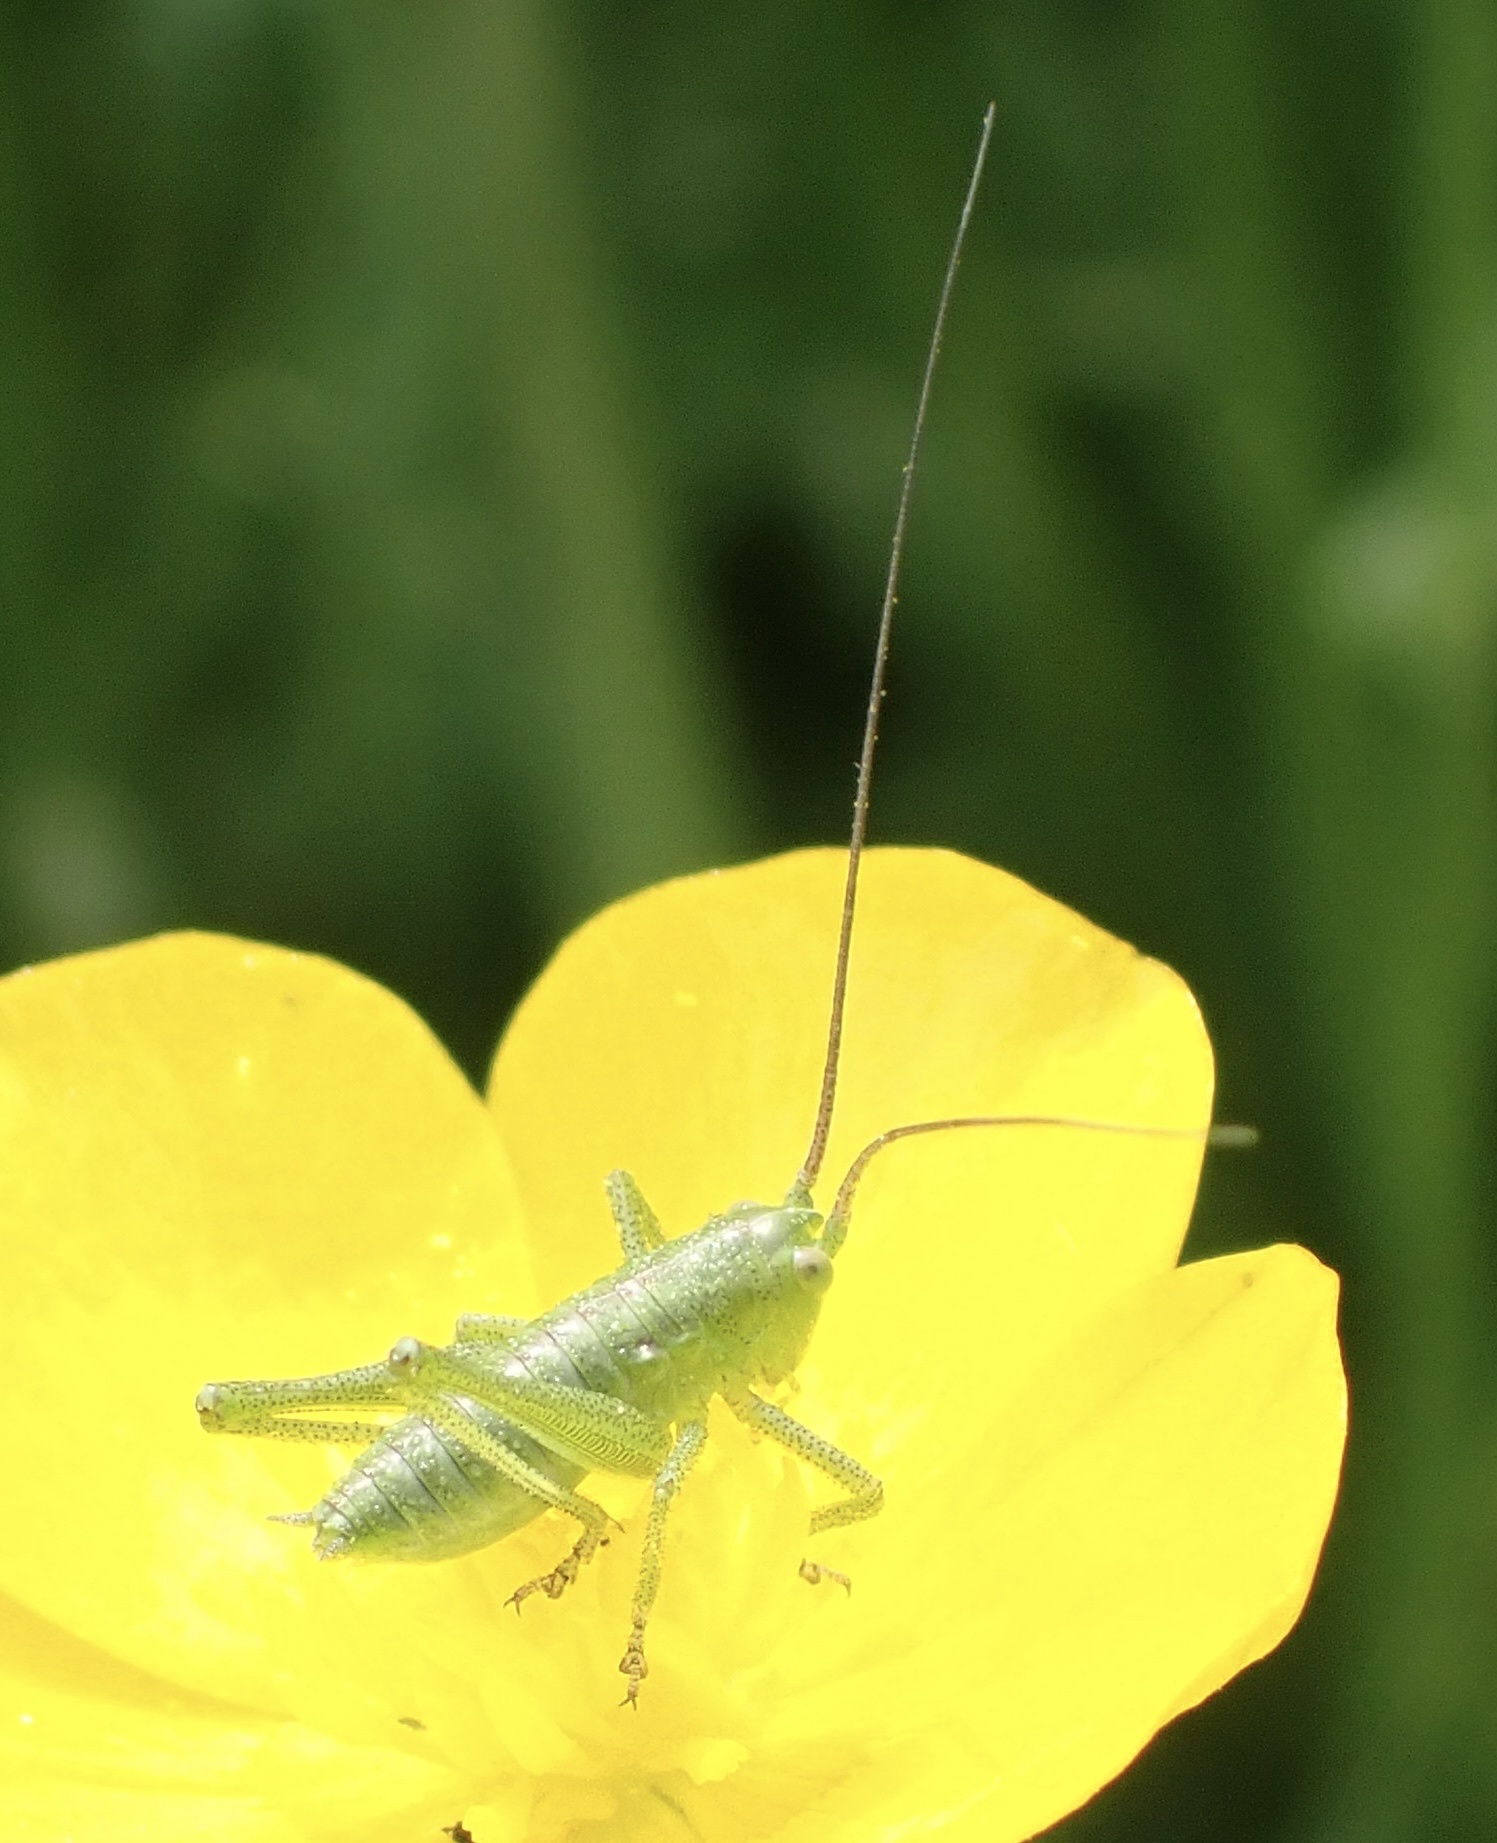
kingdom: Animalia
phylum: Arthropoda
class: Insecta
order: Orthoptera
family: Tettigoniidae
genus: Tettigonia
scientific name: Tettigonia viridissima
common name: Great green bush-cricket
